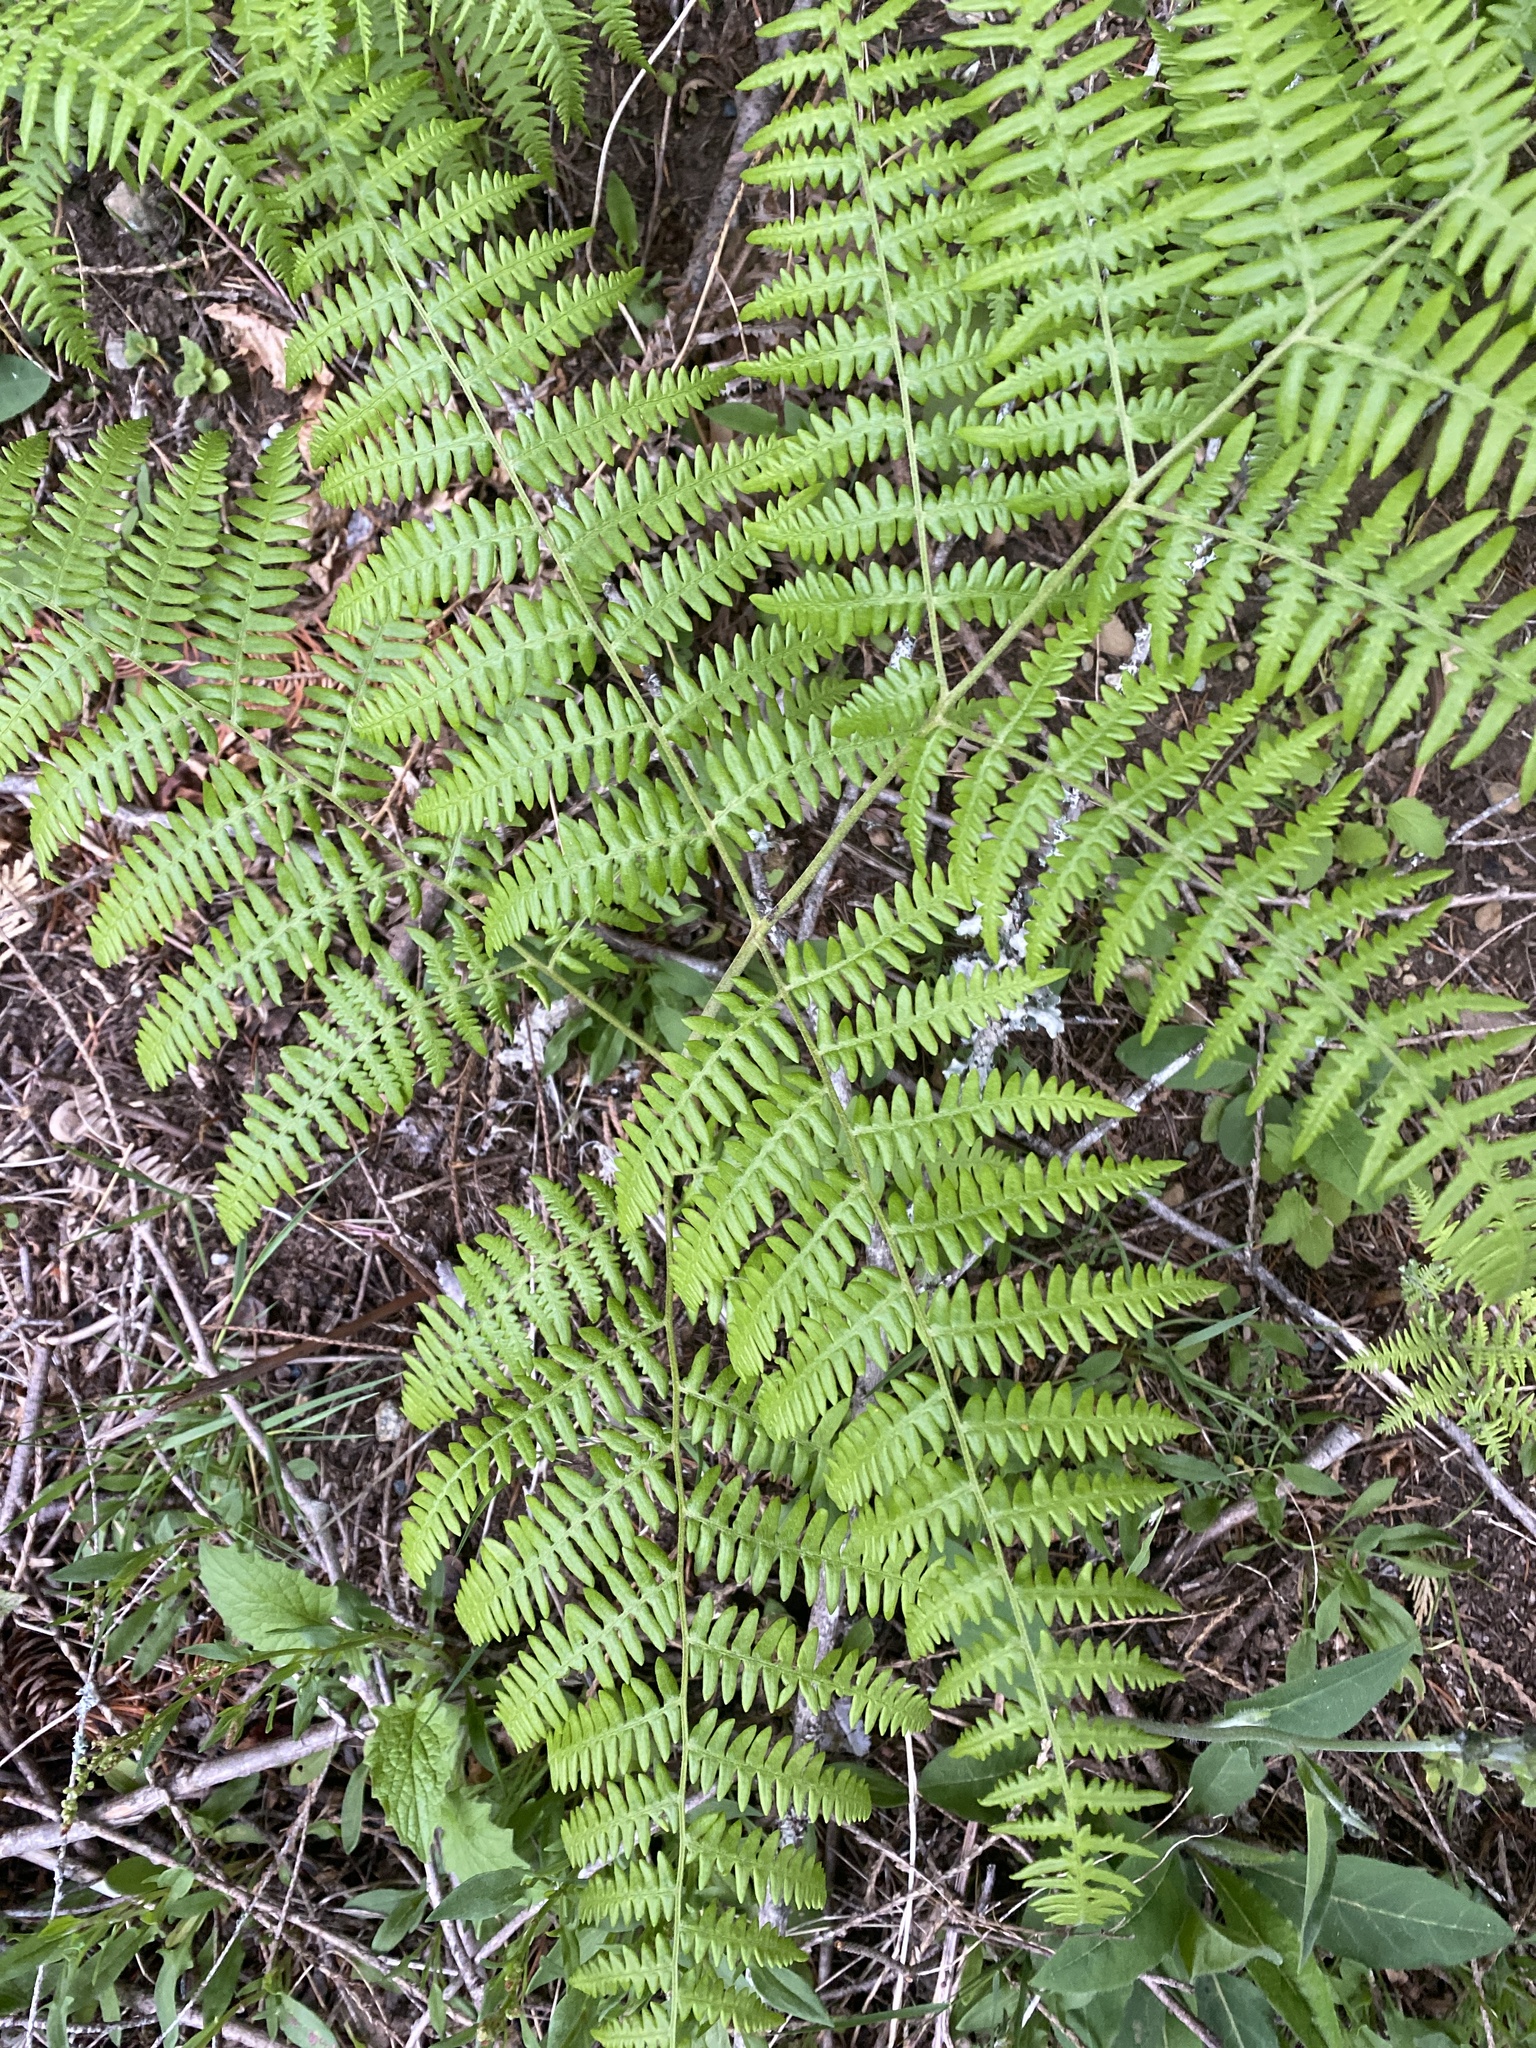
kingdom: Plantae
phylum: Tracheophyta
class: Polypodiopsida
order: Polypodiales
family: Dennstaedtiaceae
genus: Pteridium
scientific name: Pteridium aquilinum
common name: Bracken
